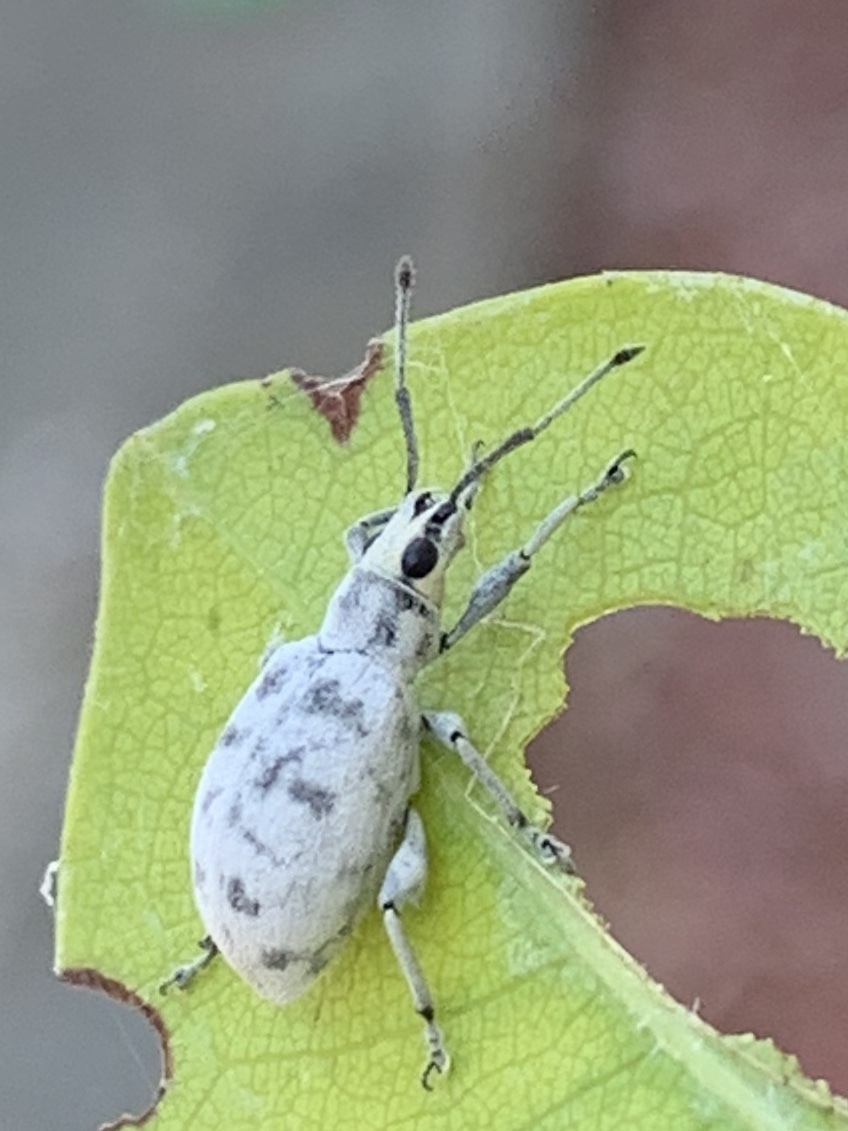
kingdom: Animalia
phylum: Arthropoda
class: Insecta
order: Coleoptera
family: Curculionidae
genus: Myllocerus
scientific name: Myllocerus undecimpustulatus
